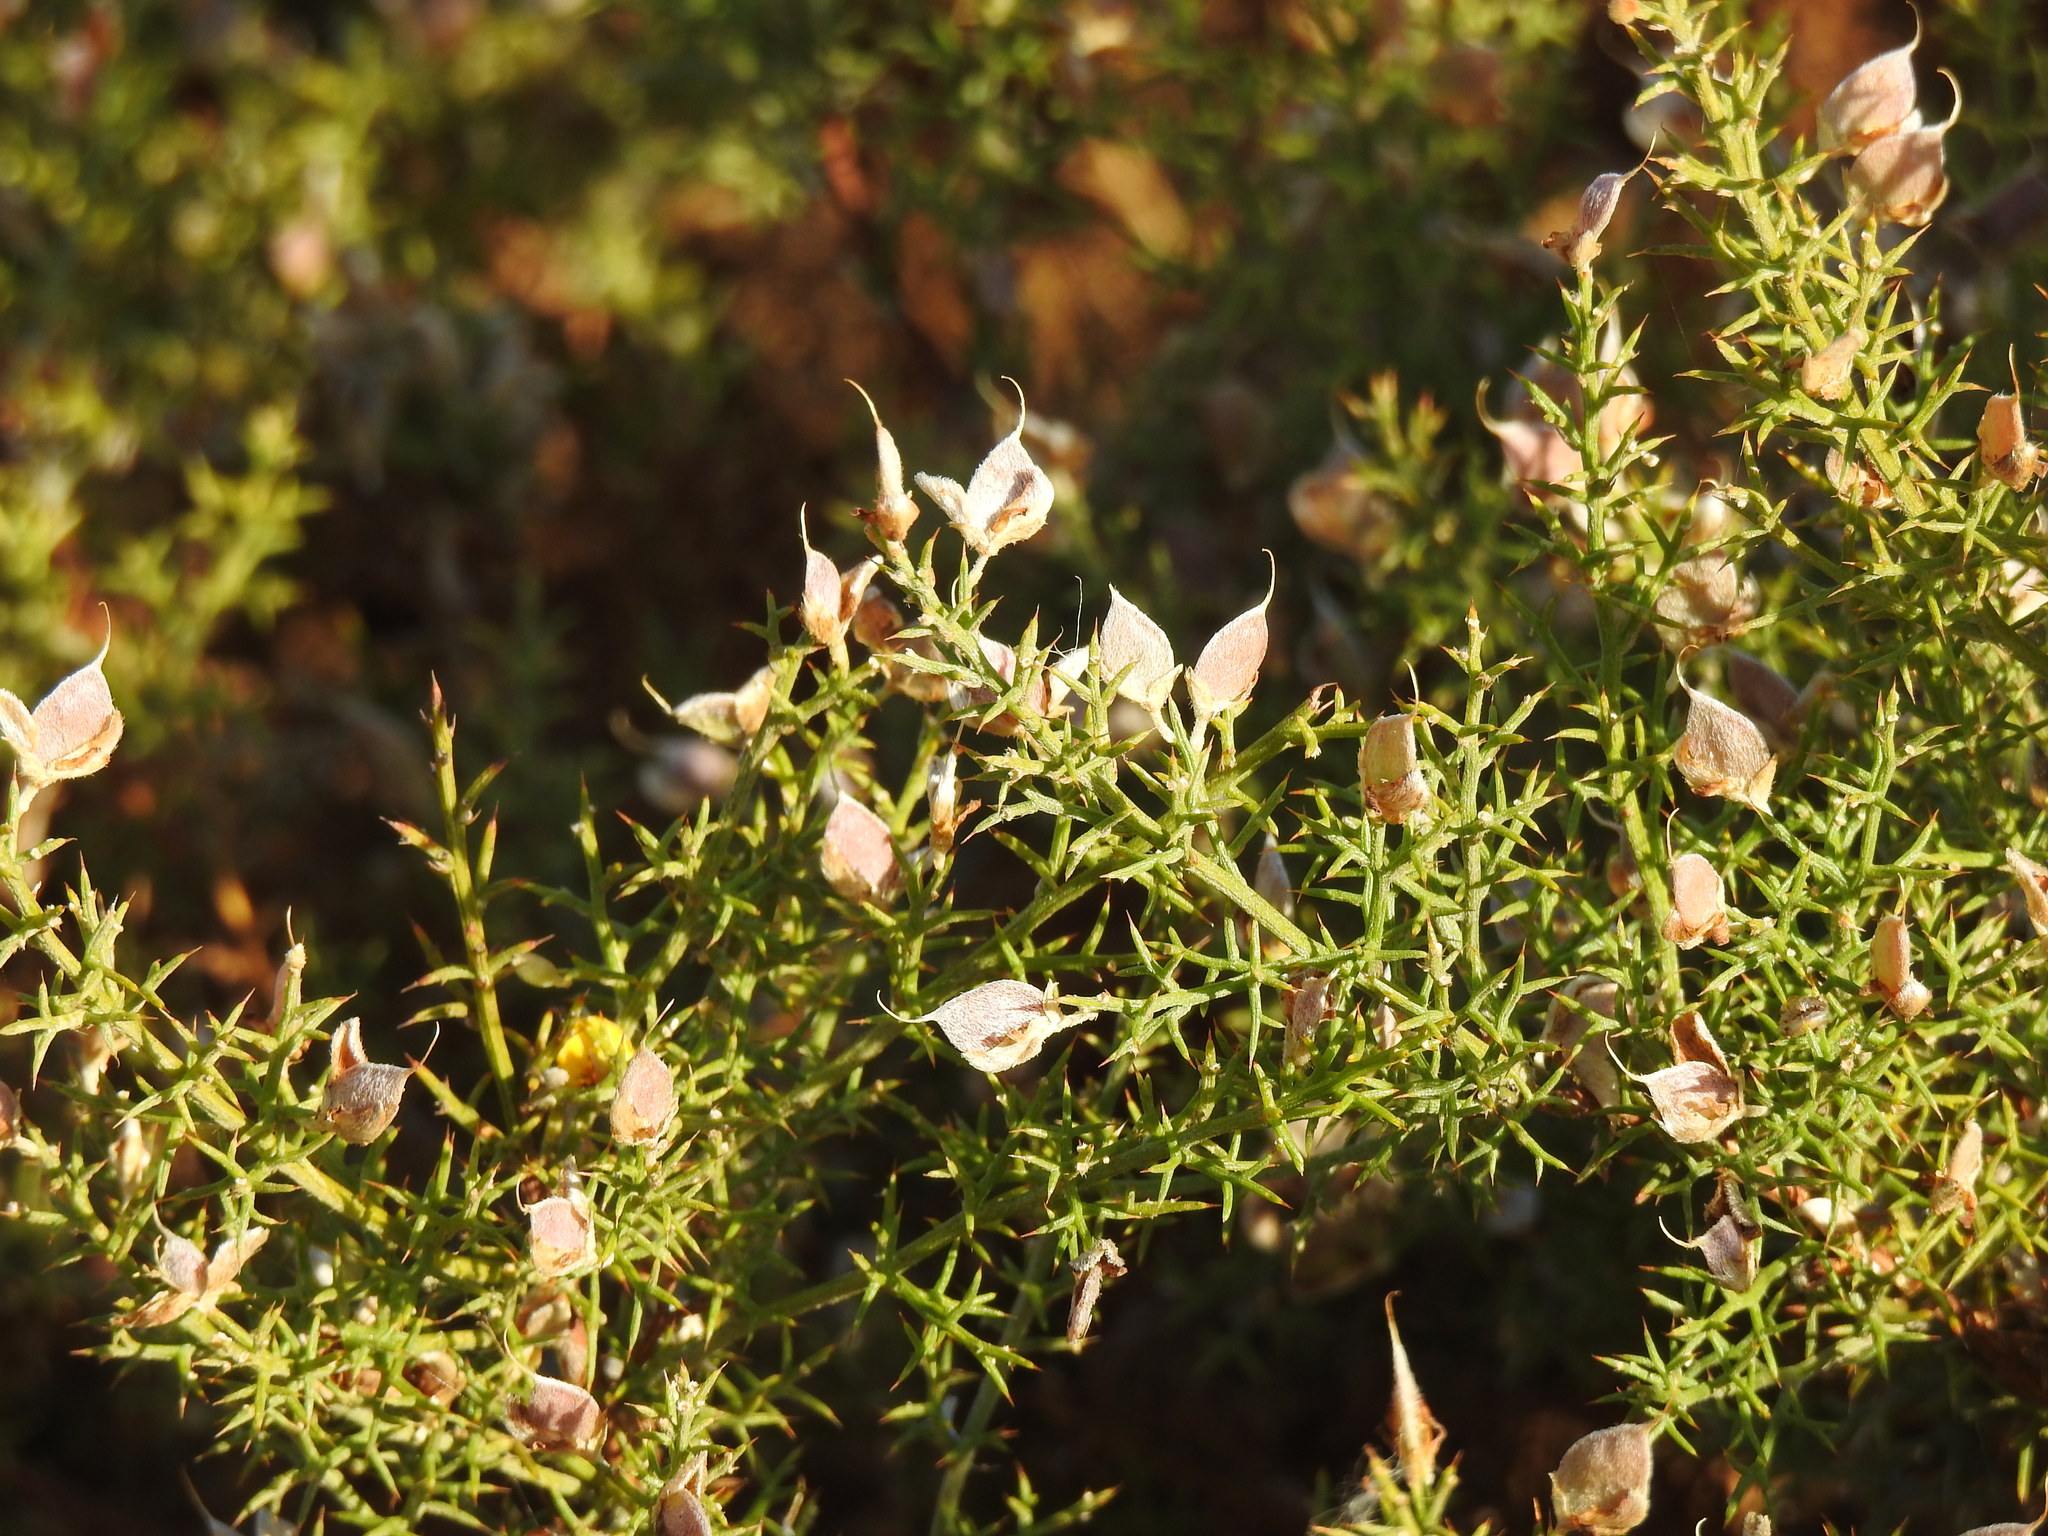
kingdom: Plantae
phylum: Tracheophyta
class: Magnoliopsida
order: Fabales
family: Fabaceae
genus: Stauracanthus
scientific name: Stauracanthus boivinii
